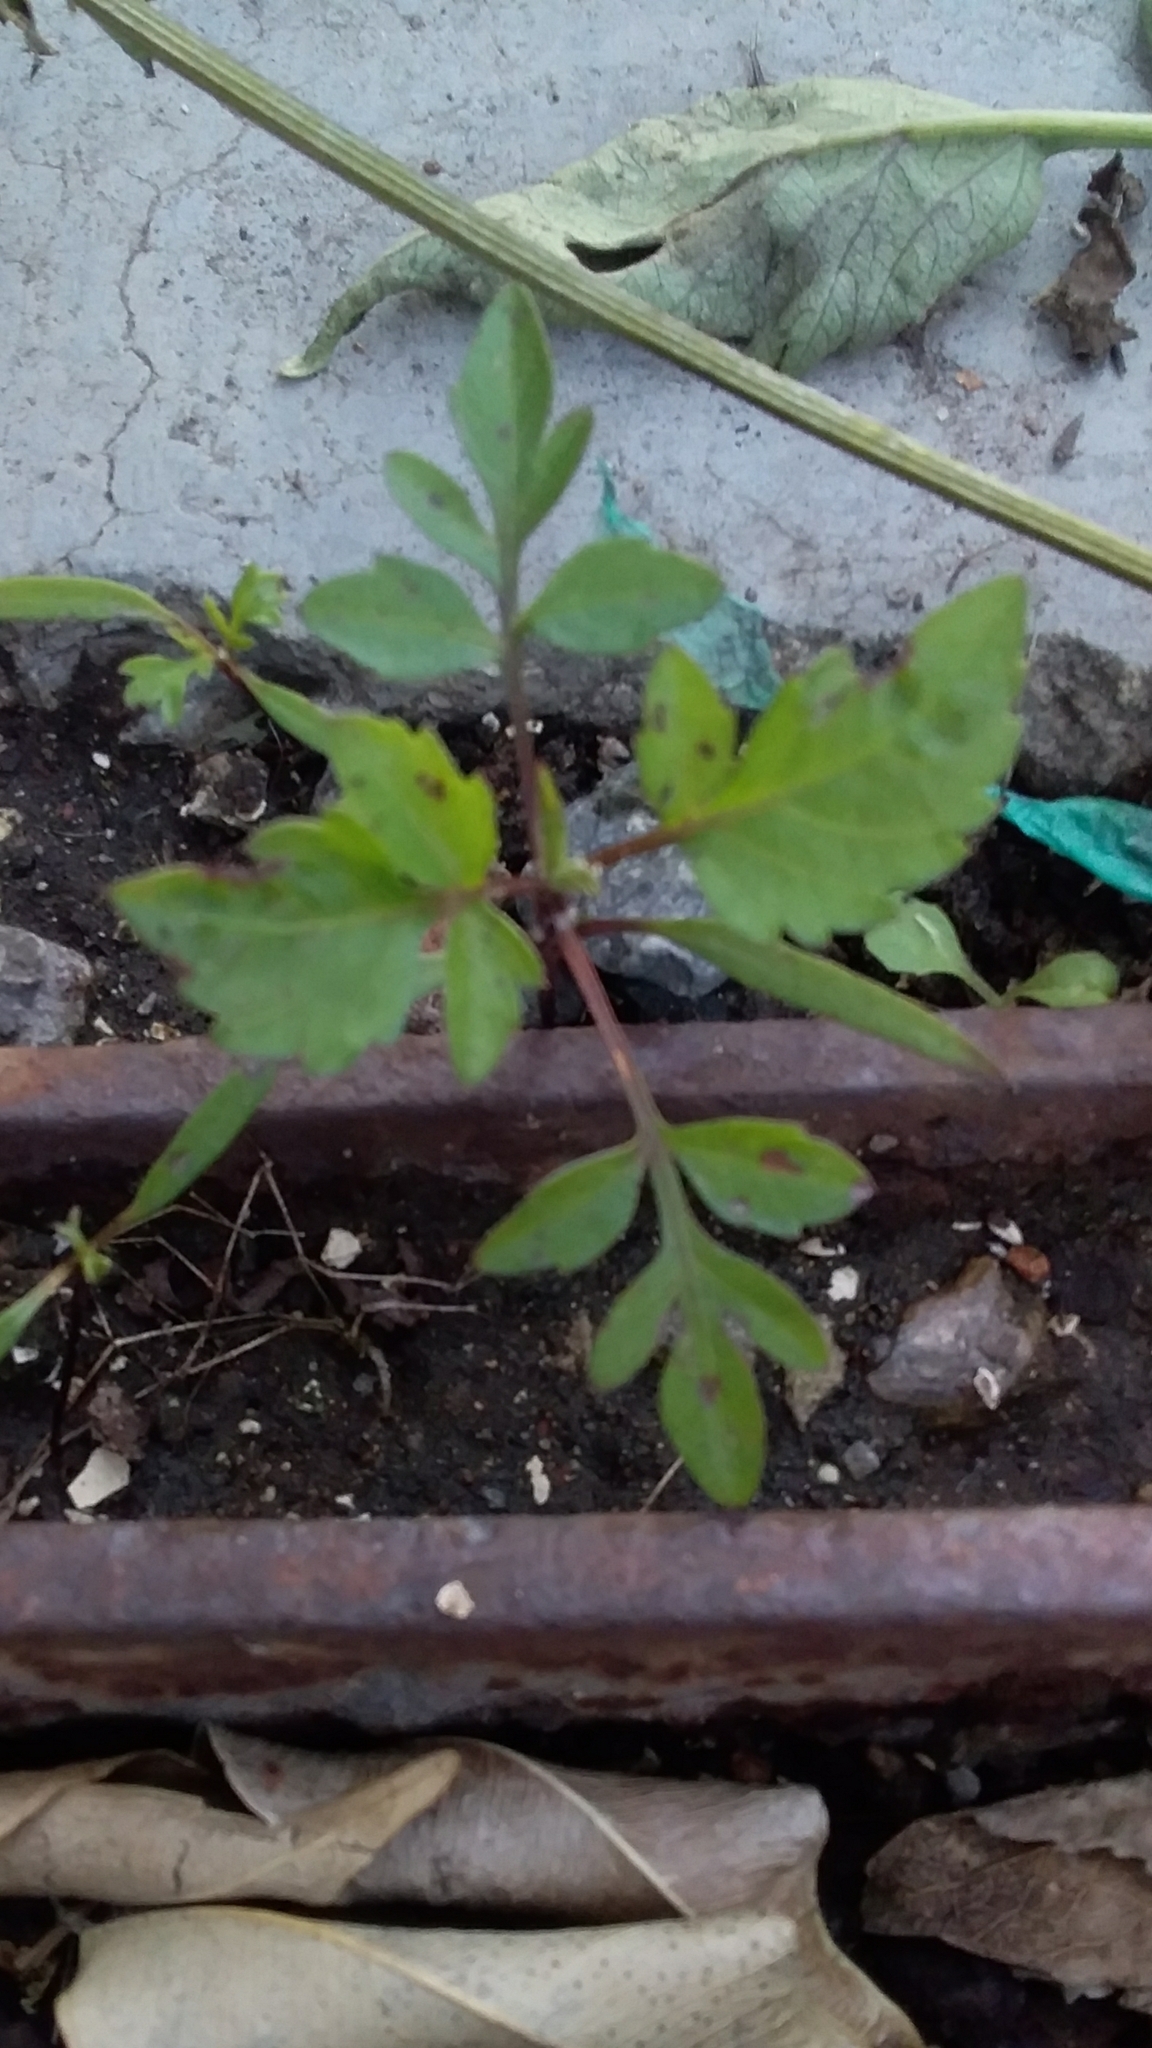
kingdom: Plantae
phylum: Tracheophyta
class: Magnoliopsida
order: Asterales
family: Asteraceae
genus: Bidens
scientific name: Bidens pilosa
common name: Black-jack
